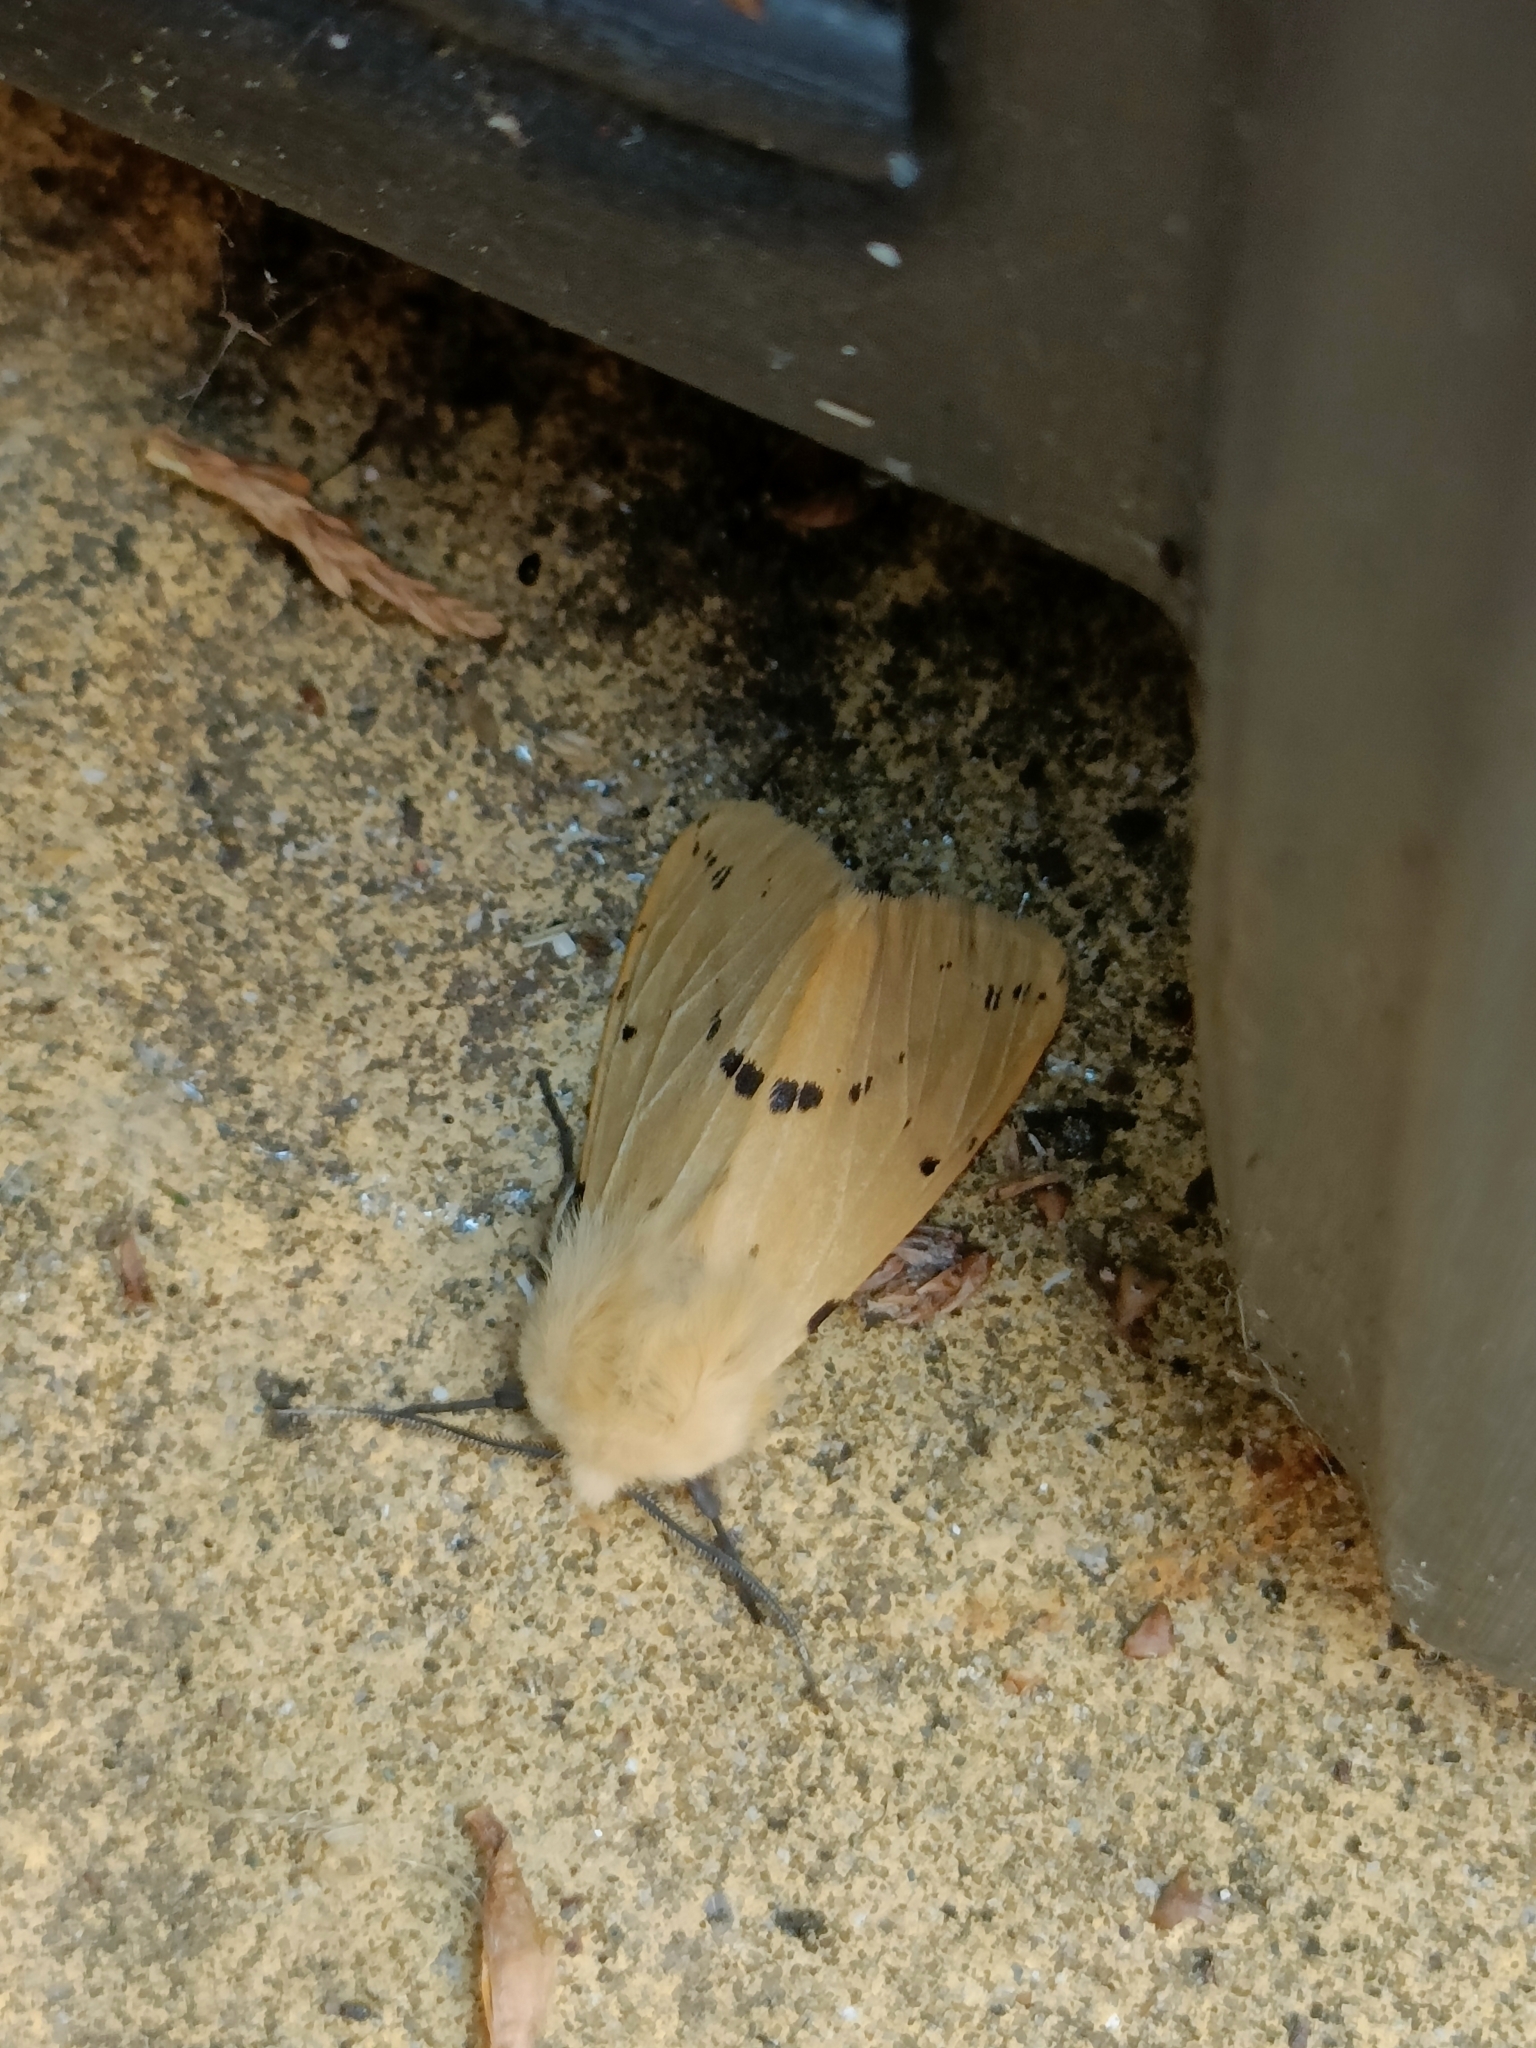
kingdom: Animalia
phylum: Arthropoda
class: Insecta
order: Lepidoptera
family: Erebidae
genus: Spilarctia
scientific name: Spilarctia lutea
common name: Buff ermine
